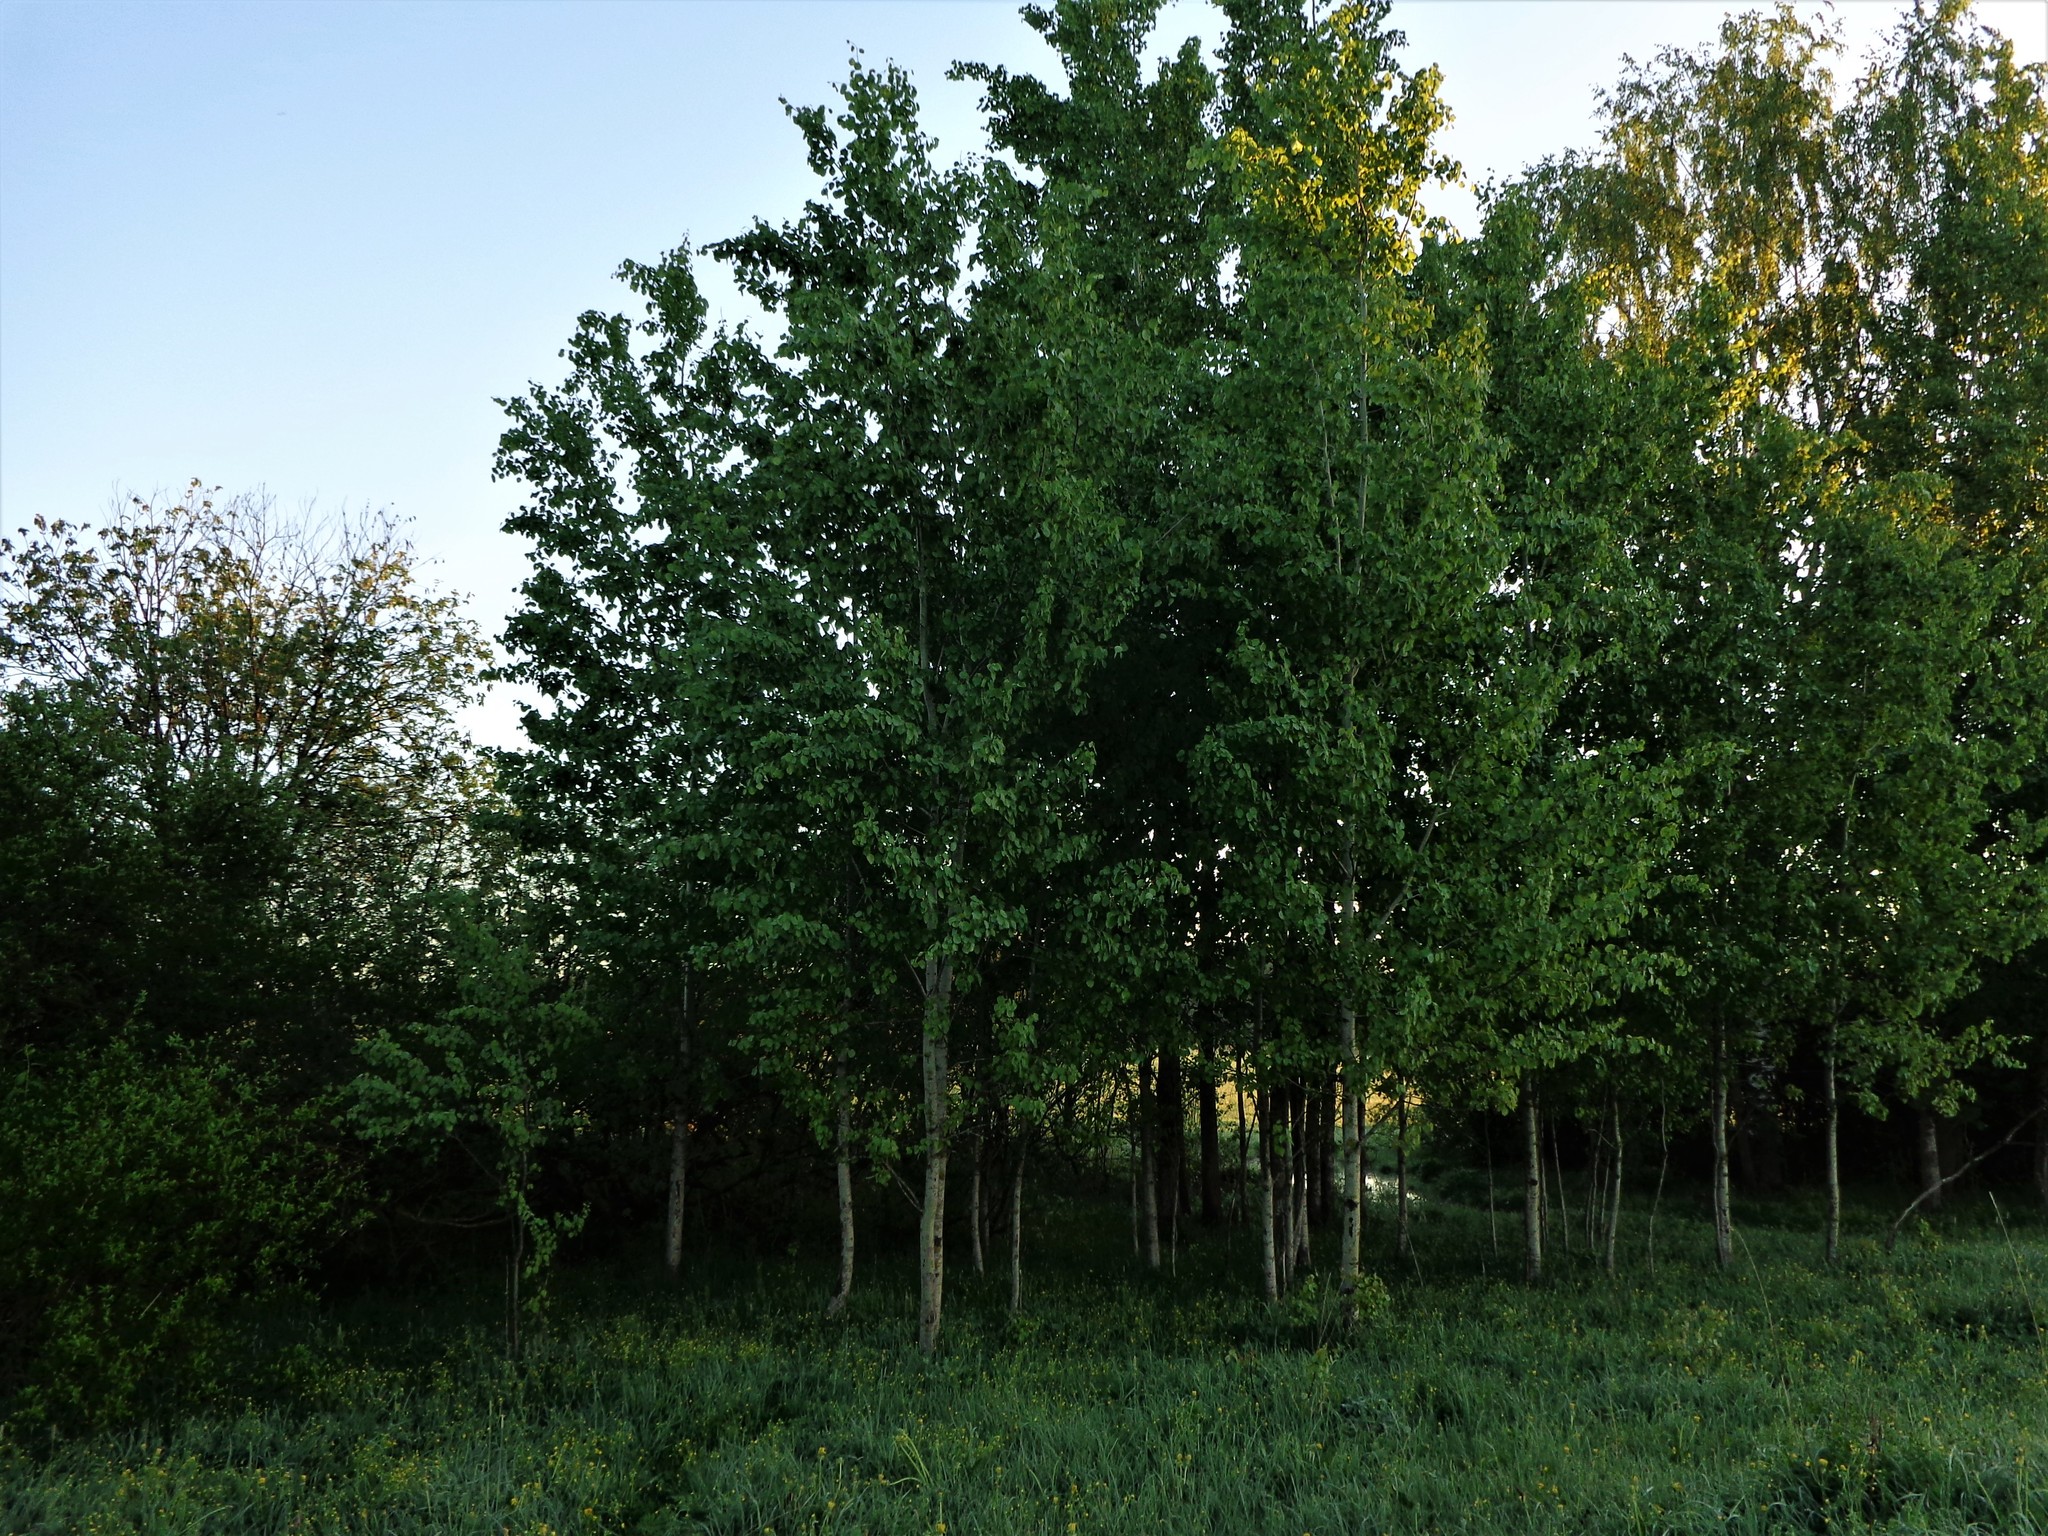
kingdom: Plantae
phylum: Tracheophyta
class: Magnoliopsida
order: Malpighiales
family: Salicaceae
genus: Populus
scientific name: Populus tremula
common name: European aspen
